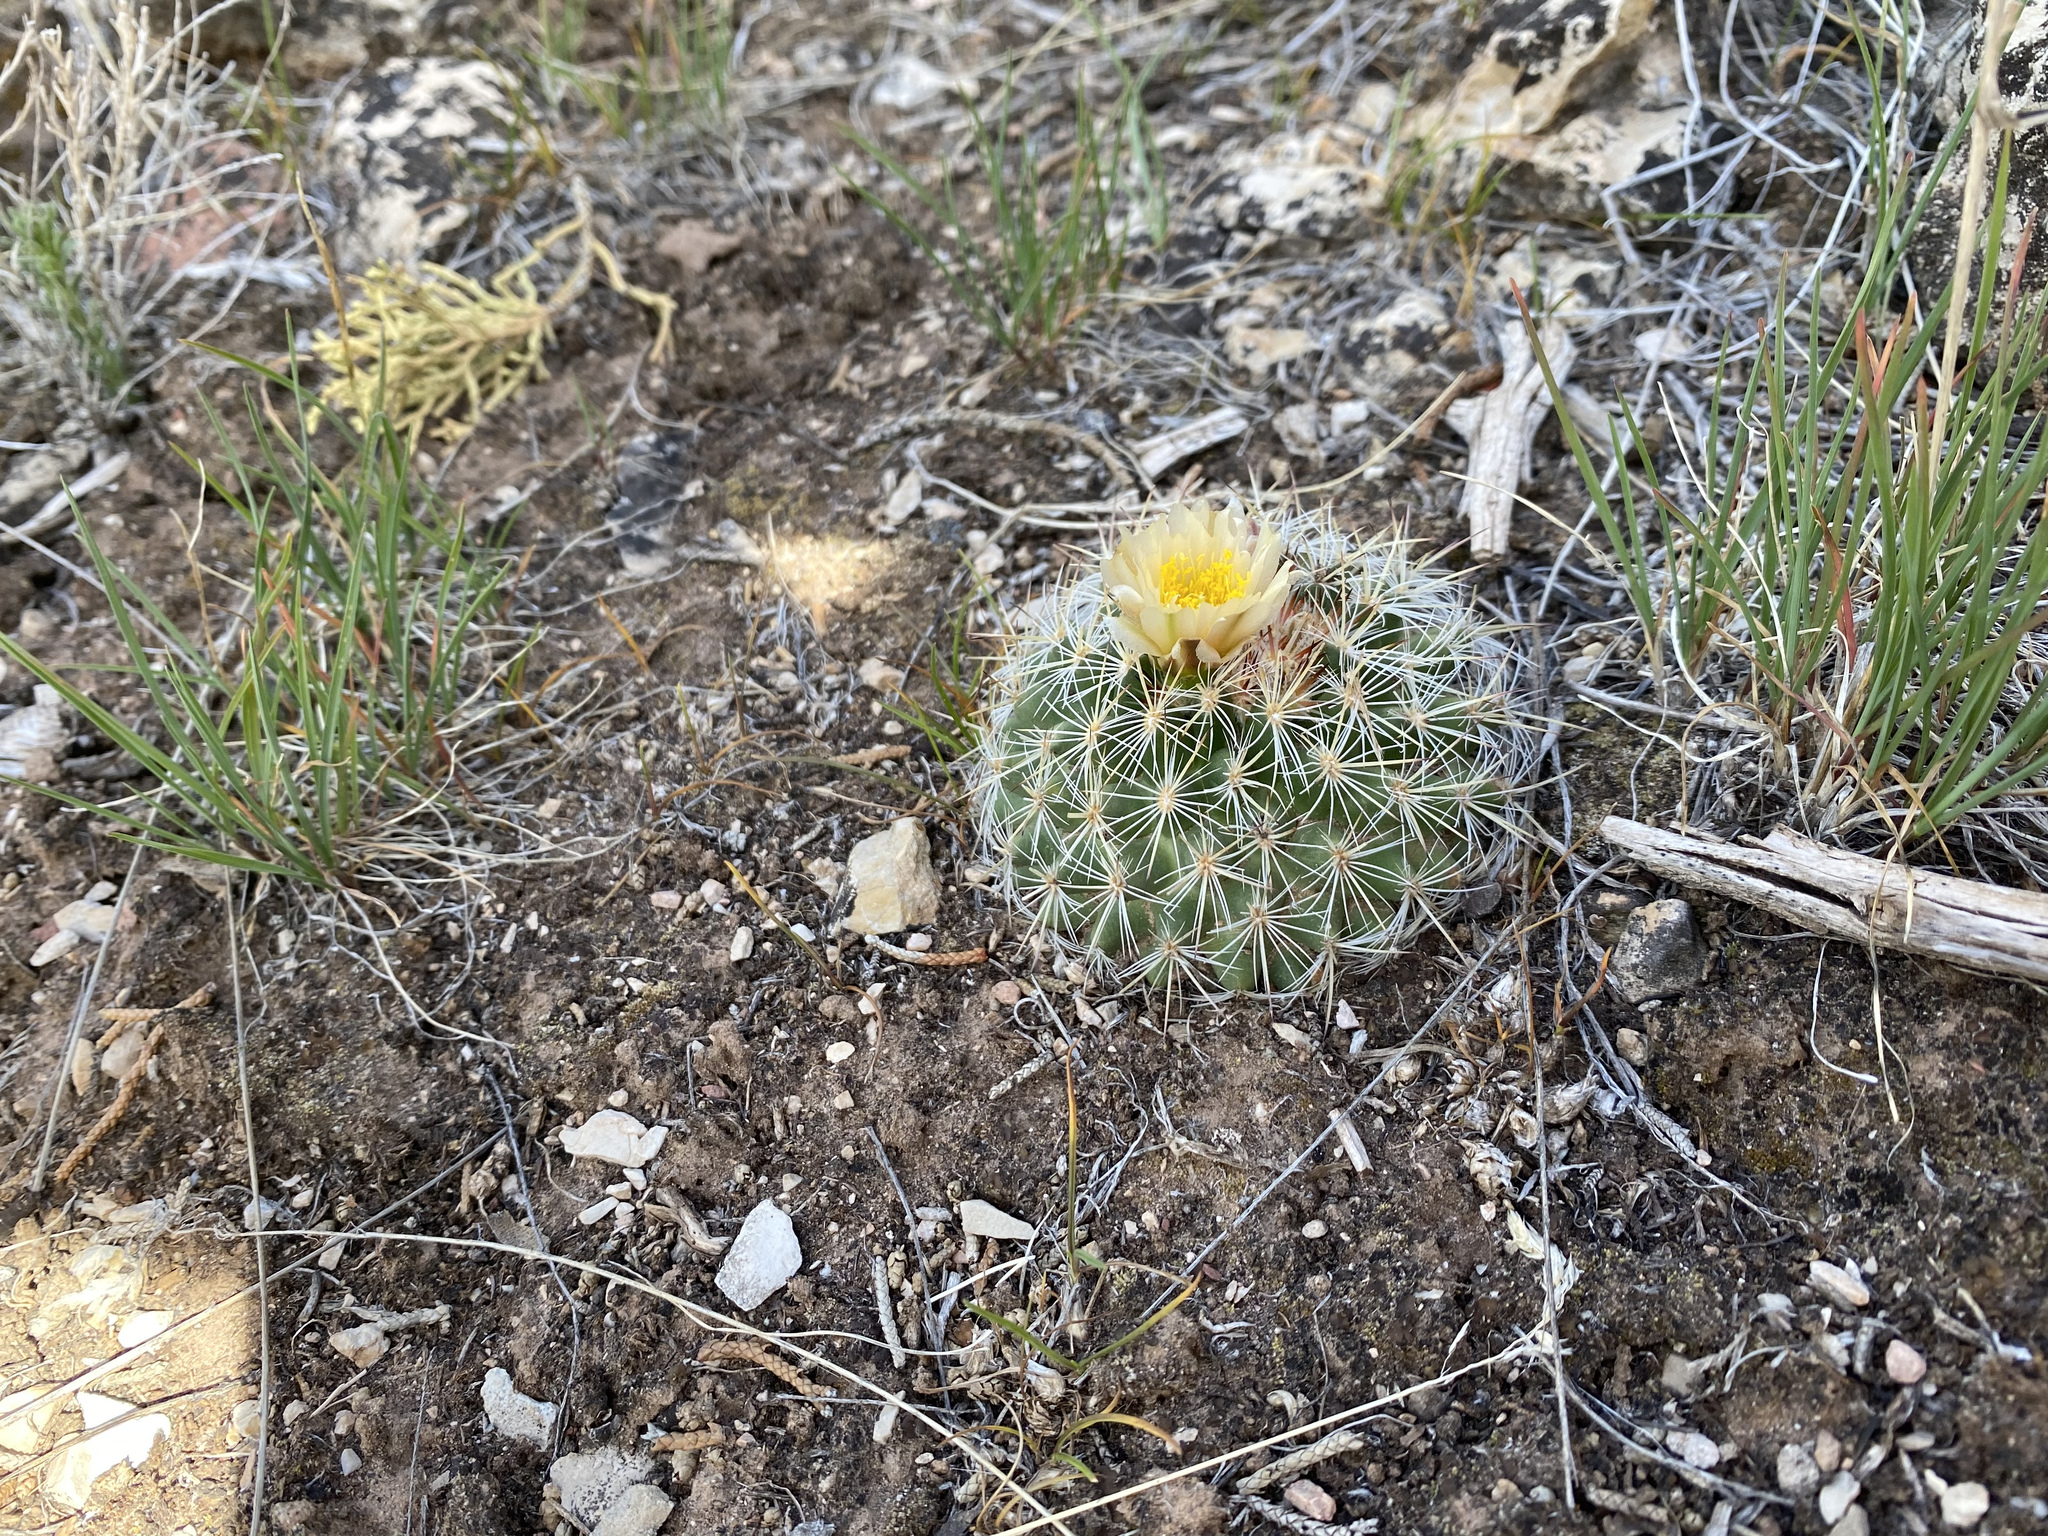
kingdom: Plantae
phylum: Tracheophyta
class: Magnoliopsida
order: Caryophyllales
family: Cactaceae
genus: Pediocactus
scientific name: Pediocactus simpsonii
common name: Simpson's hedgehog cactus
